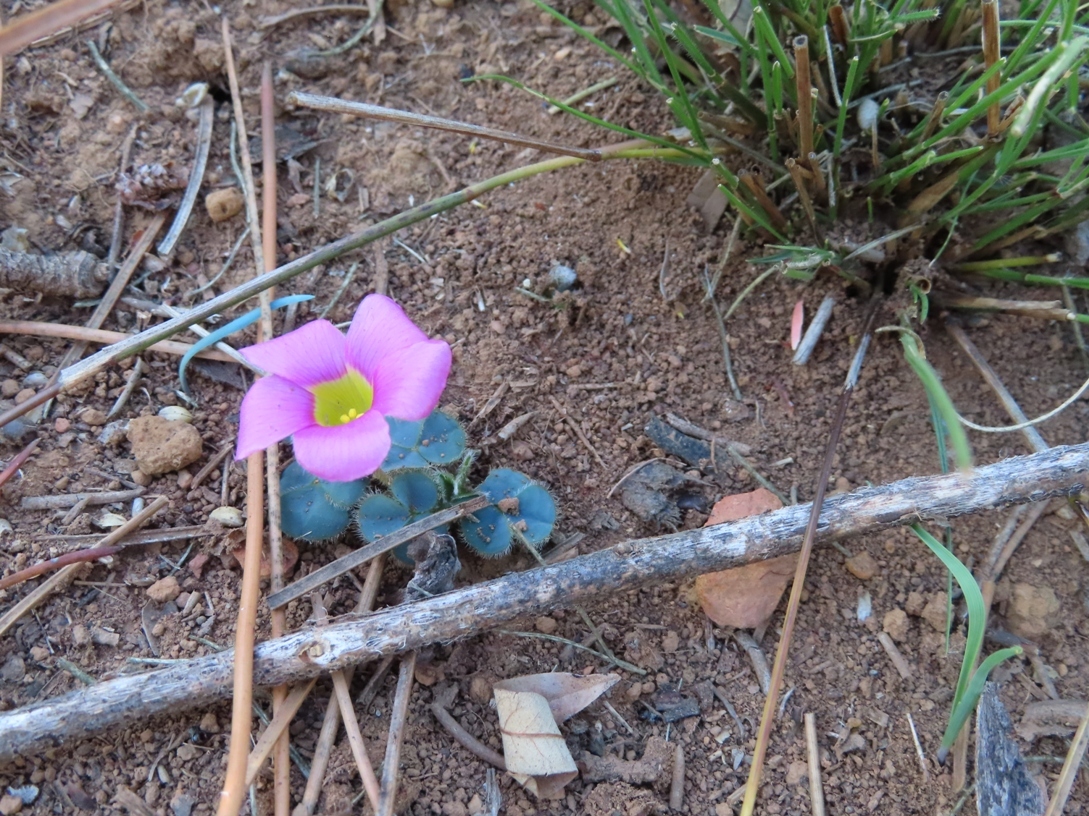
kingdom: Plantae
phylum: Tracheophyta
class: Magnoliopsida
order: Oxalidales
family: Oxalidaceae
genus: Oxalis
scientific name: Oxalis purpurea
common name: Purple woodsorrel
